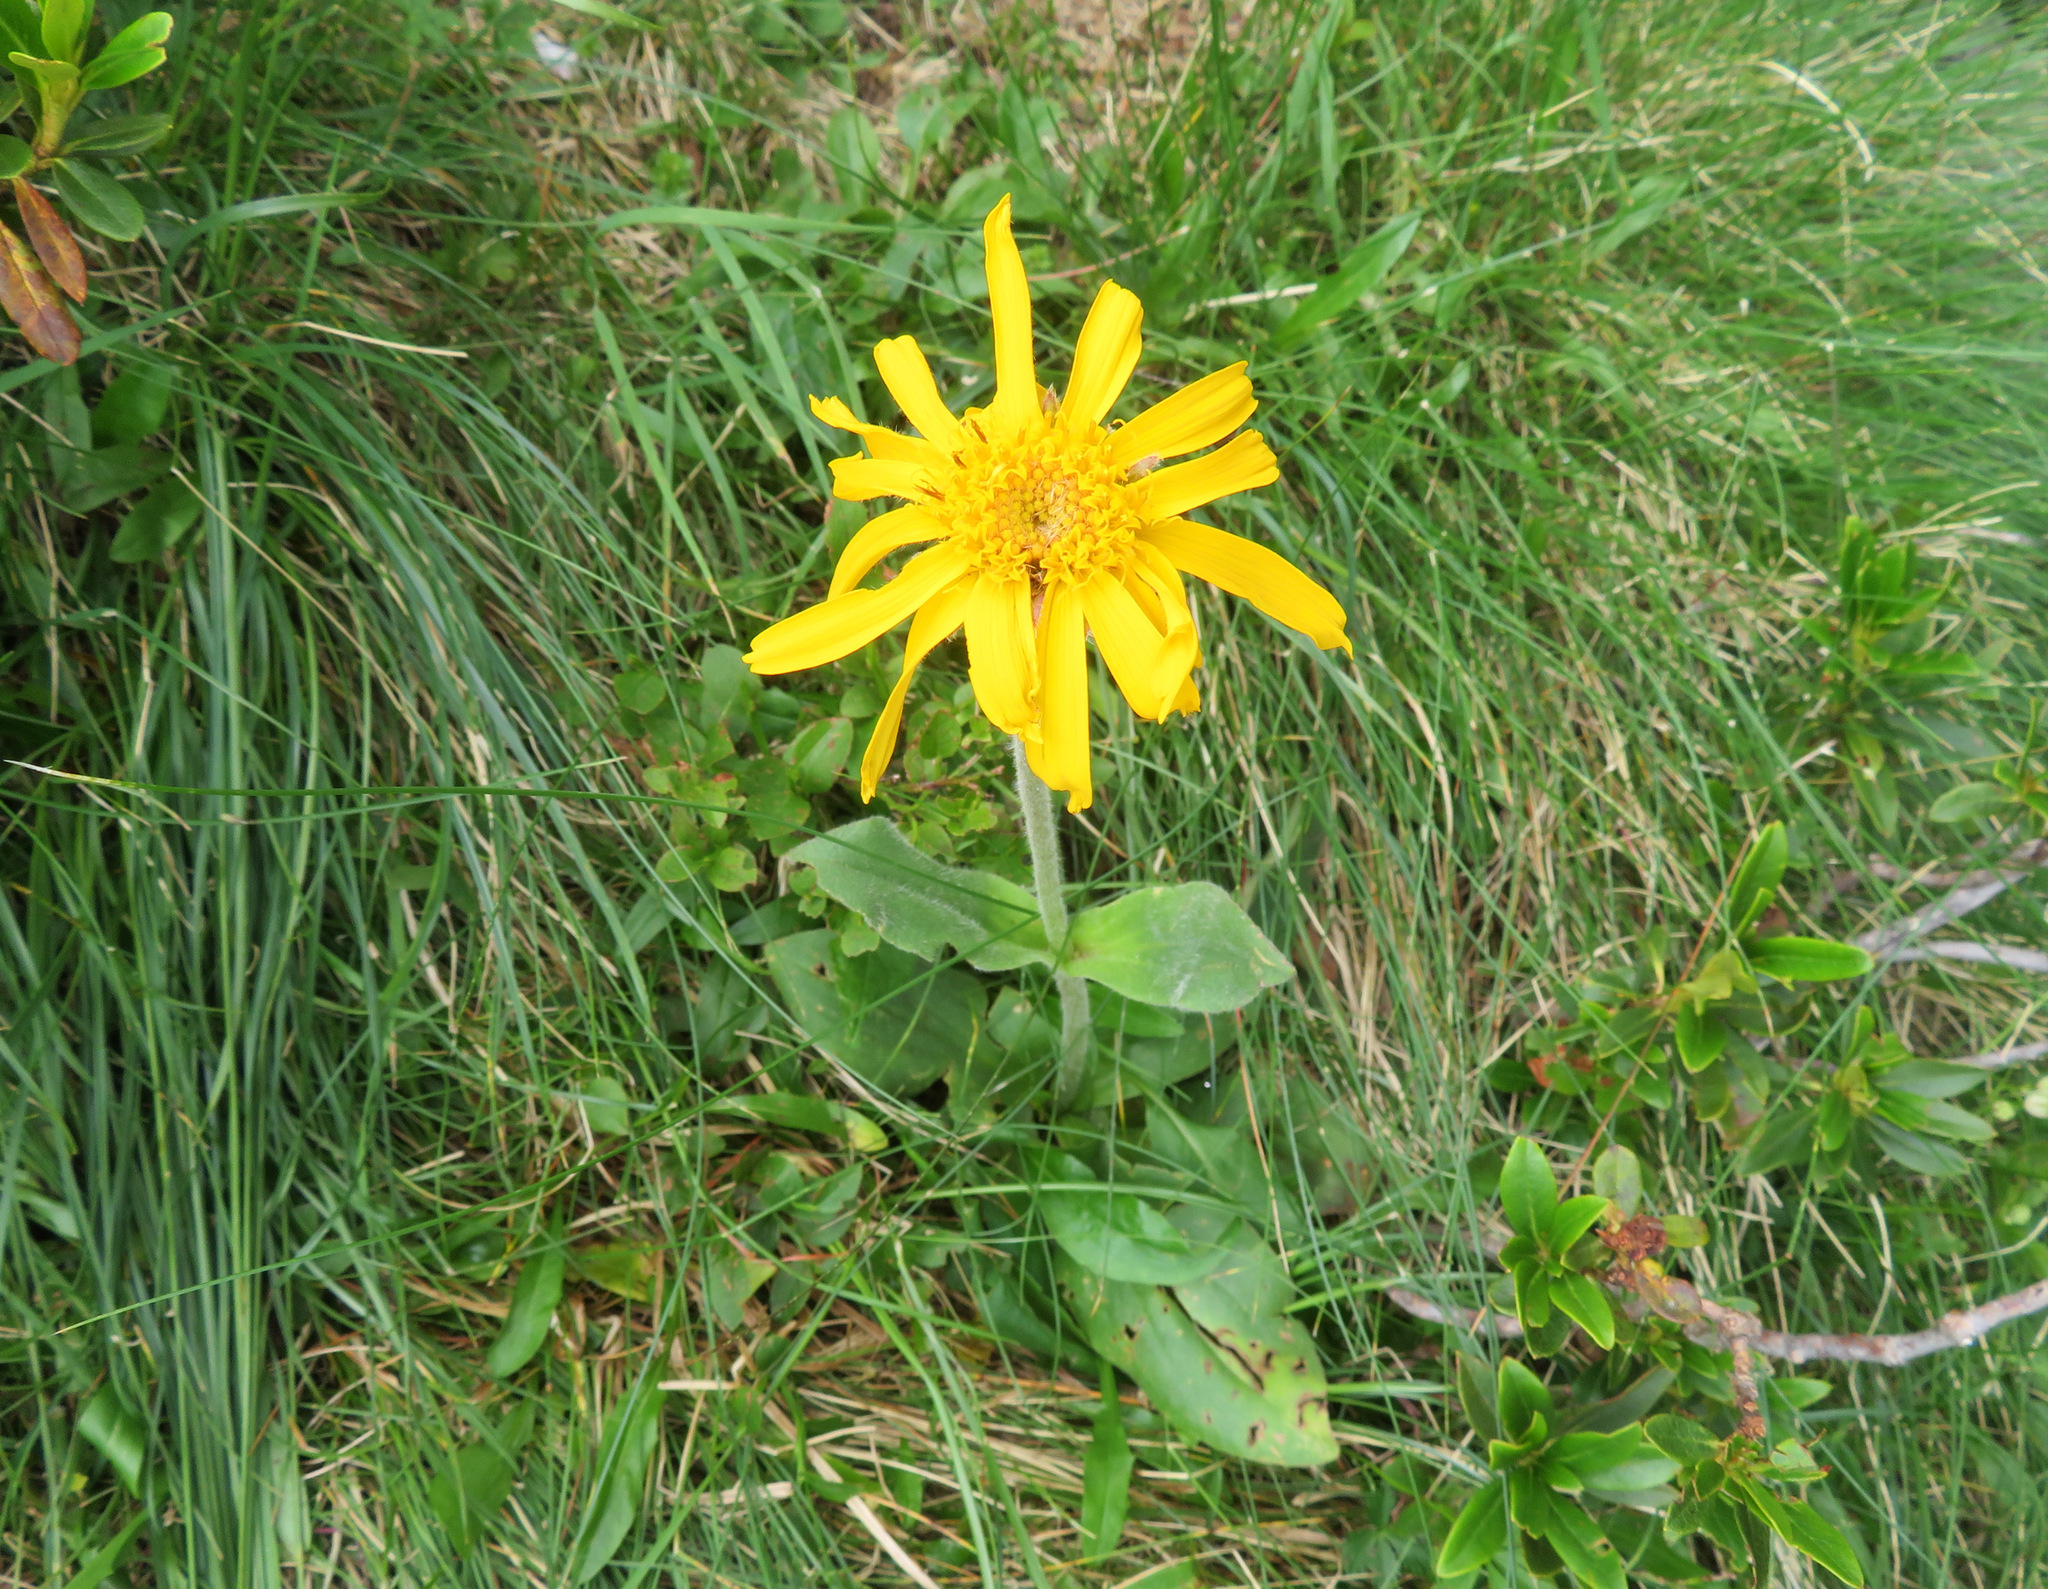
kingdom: Plantae
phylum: Tracheophyta
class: Magnoliopsida
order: Asterales
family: Asteraceae
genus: Arnica
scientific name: Arnica montana
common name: Leopard's bane
